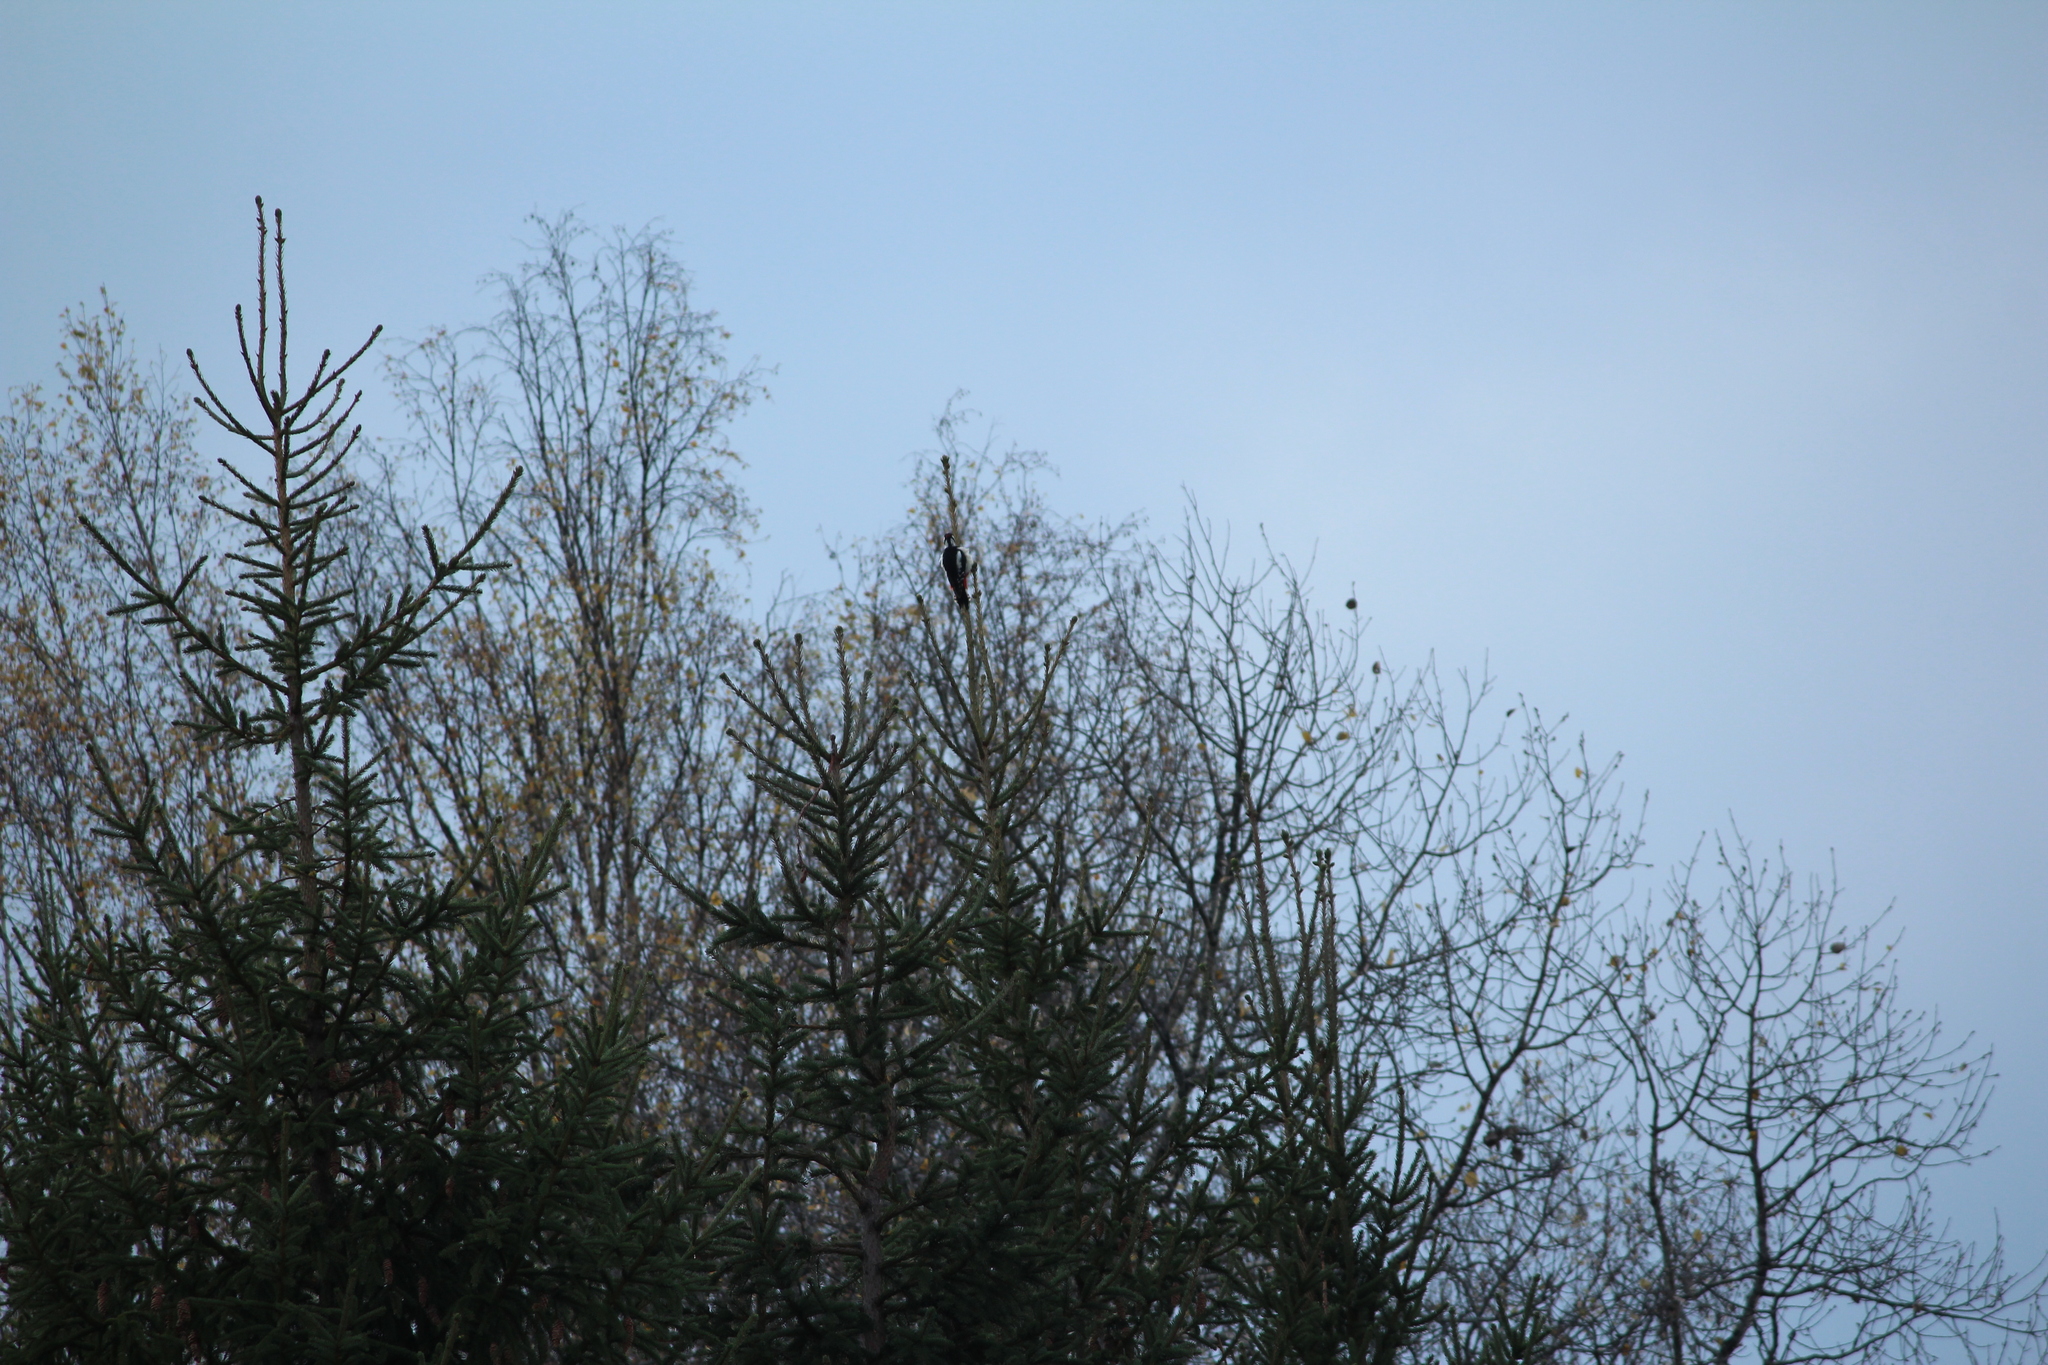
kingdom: Animalia
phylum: Chordata
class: Aves
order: Piciformes
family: Picidae
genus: Dendrocopos
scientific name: Dendrocopos major
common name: Great spotted woodpecker
